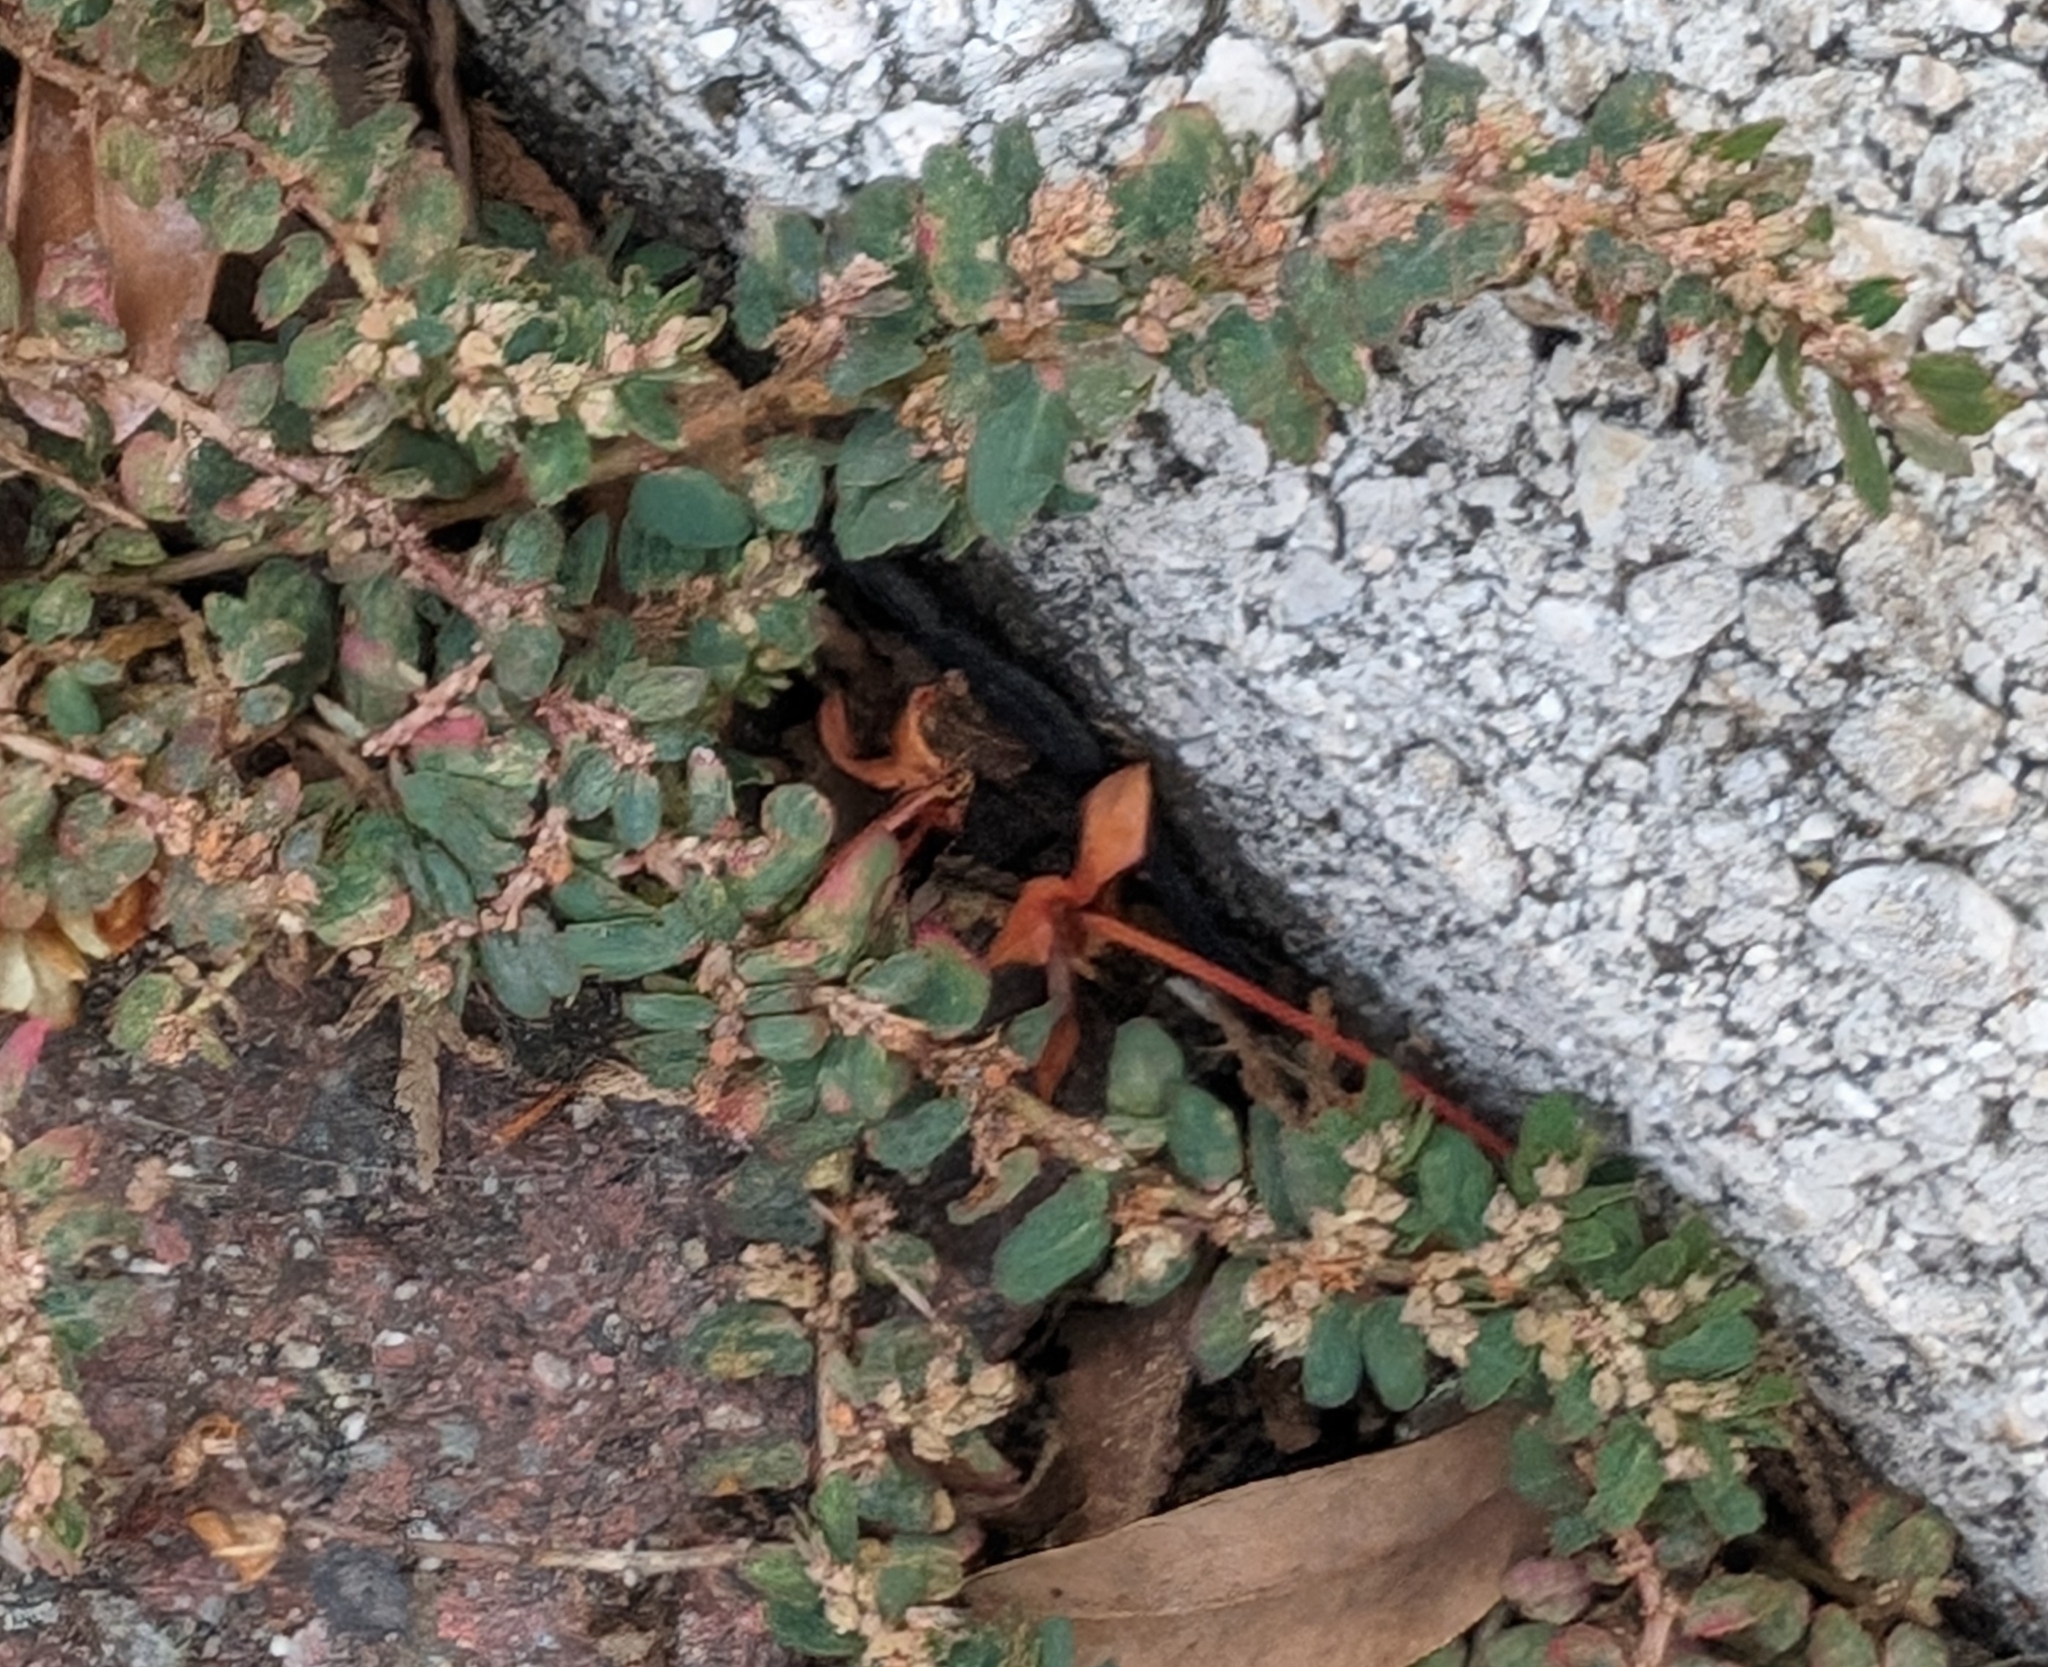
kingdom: Plantae
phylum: Tracheophyta
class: Magnoliopsida
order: Malpighiales
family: Euphorbiaceae
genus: Euphorbia
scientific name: Euphorbia thymifolia
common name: Gulf sandmat
